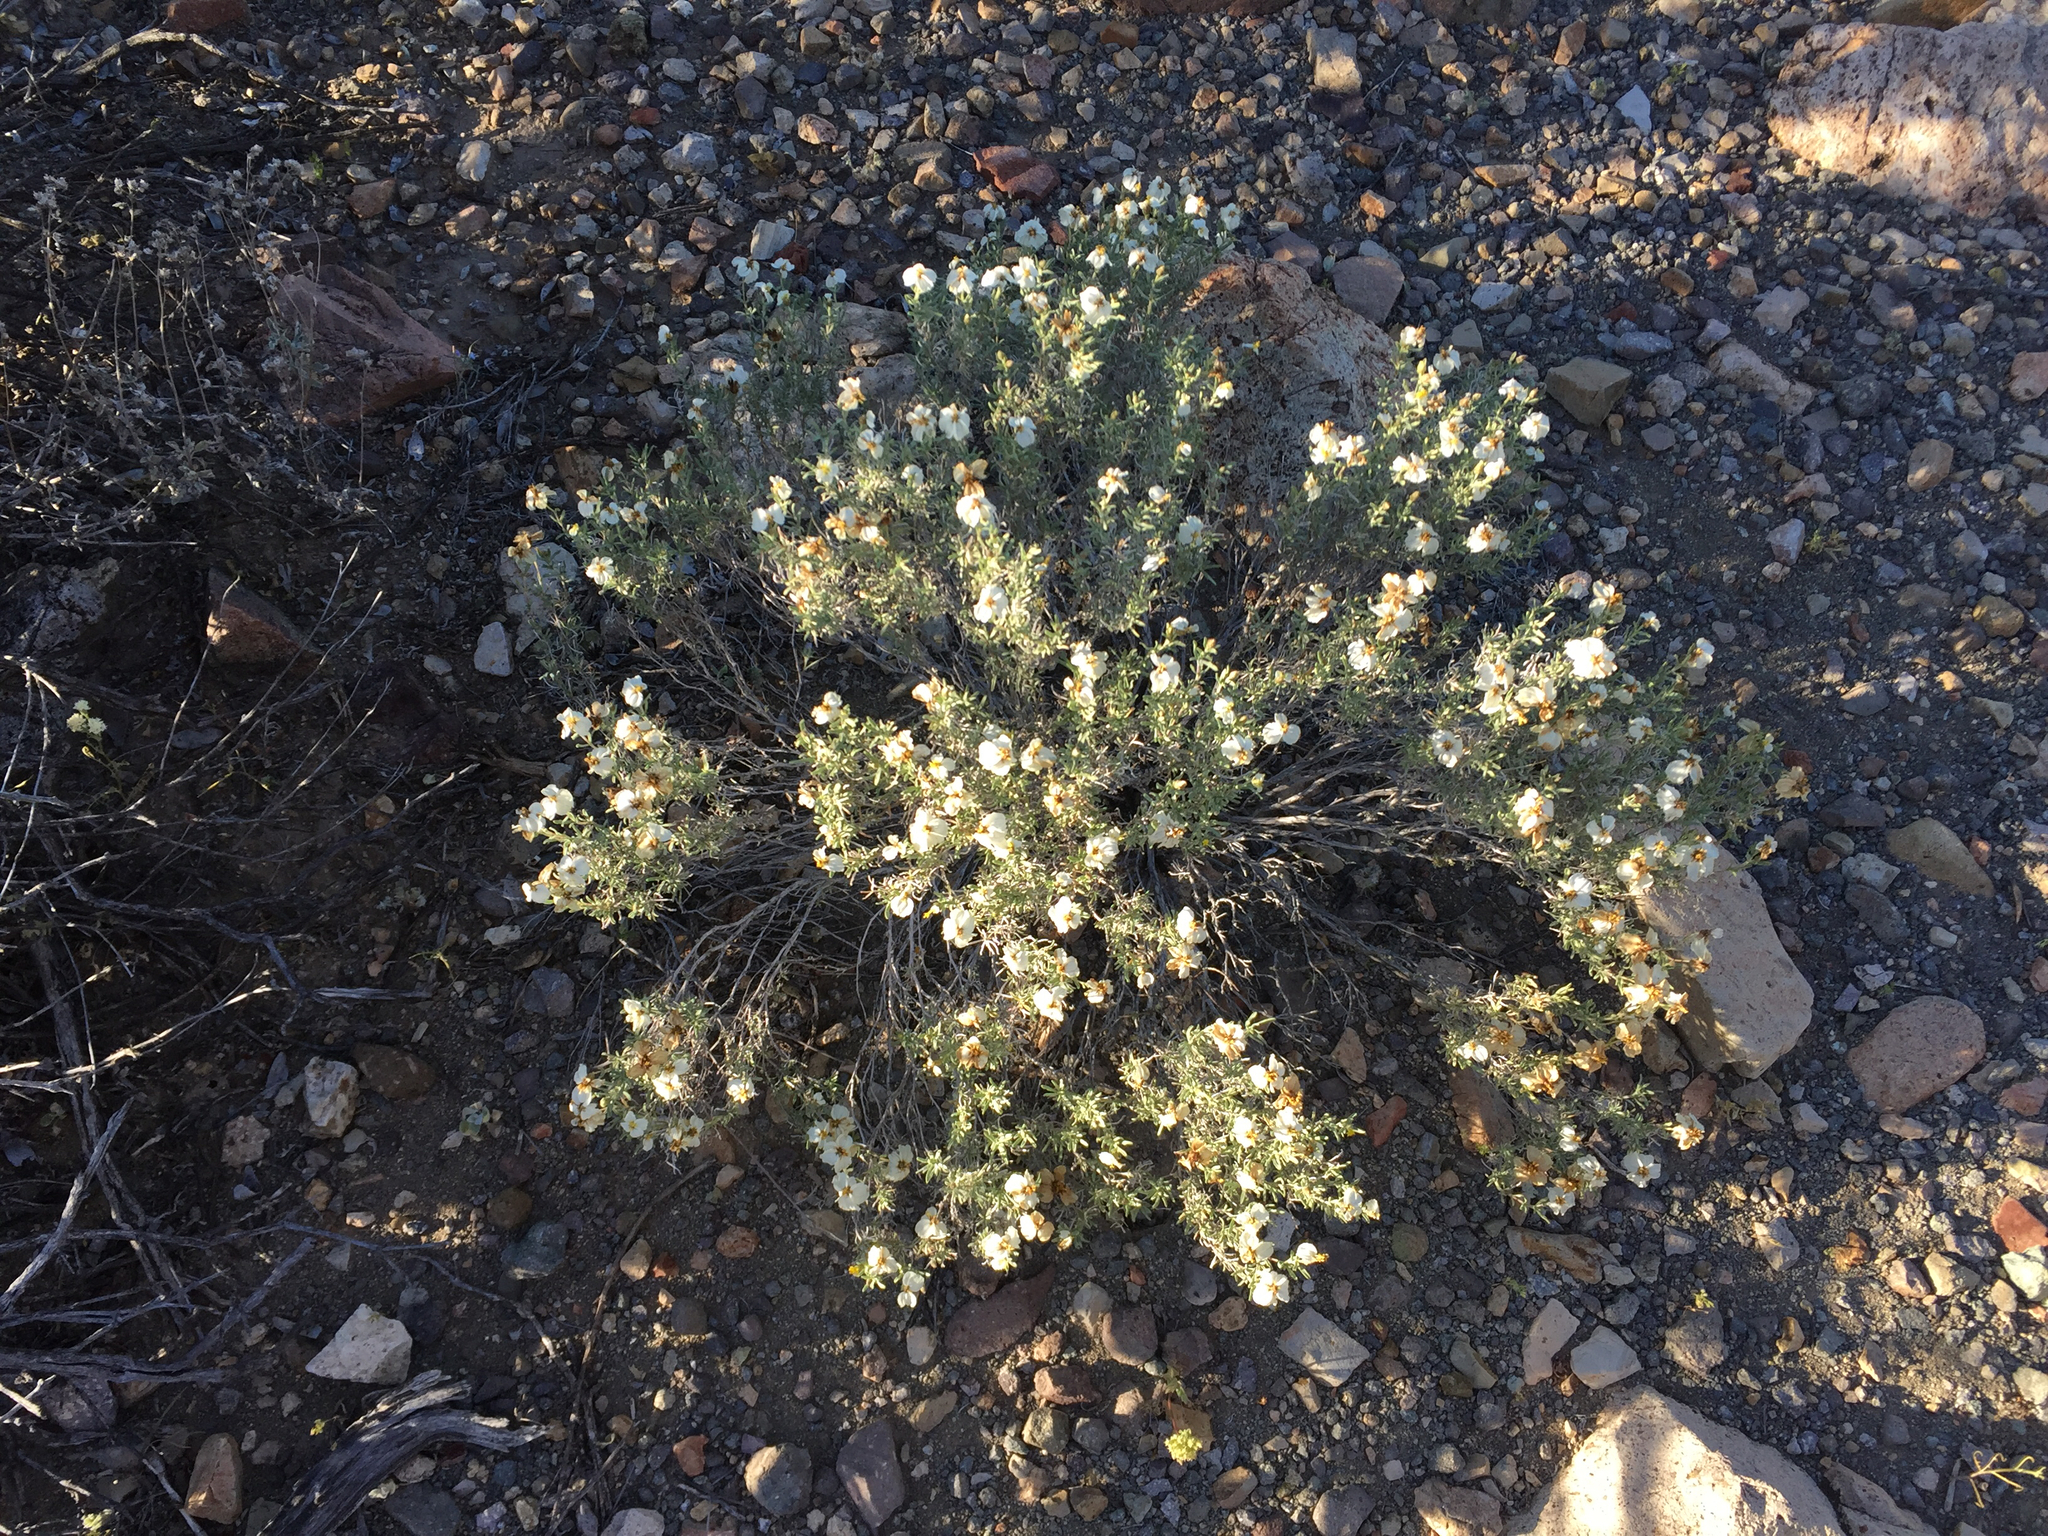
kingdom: Plantae
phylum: Tracheophyta
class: Magnoliopsida
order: Asterales
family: Asteraceae
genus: Zinnia
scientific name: Zinnia acerosa
